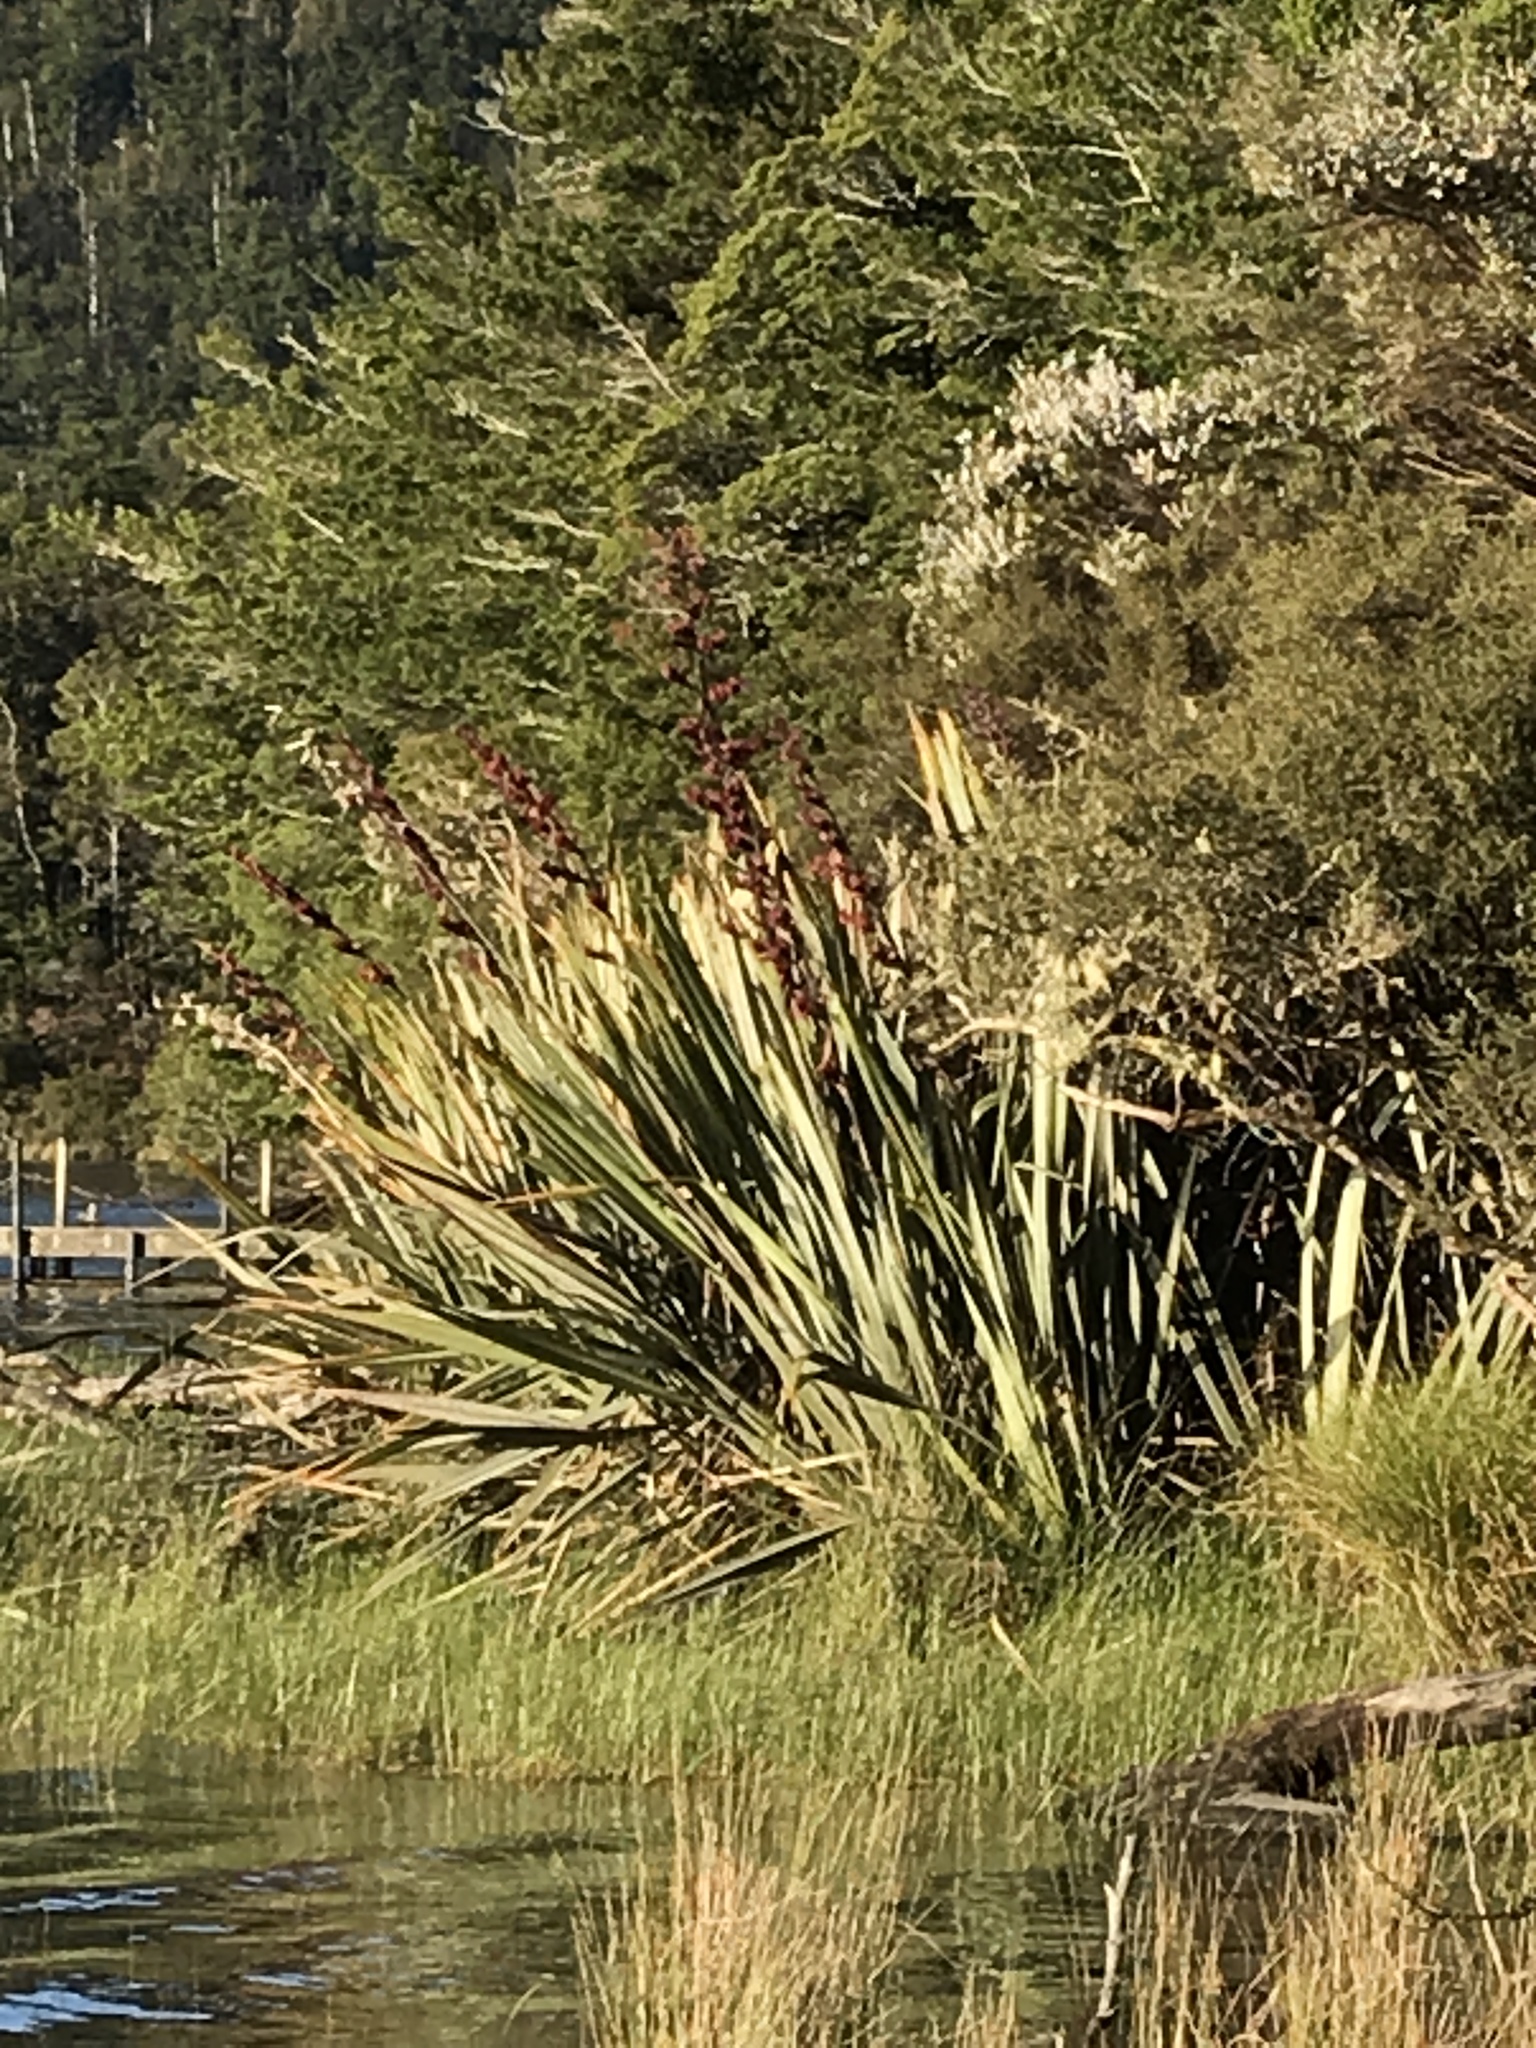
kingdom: Plantae
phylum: Tracheophyta
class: Liliopsida
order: Asparagales
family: Asphodelaceae
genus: Phormium
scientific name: Phormium tenax
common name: New zealand flax
